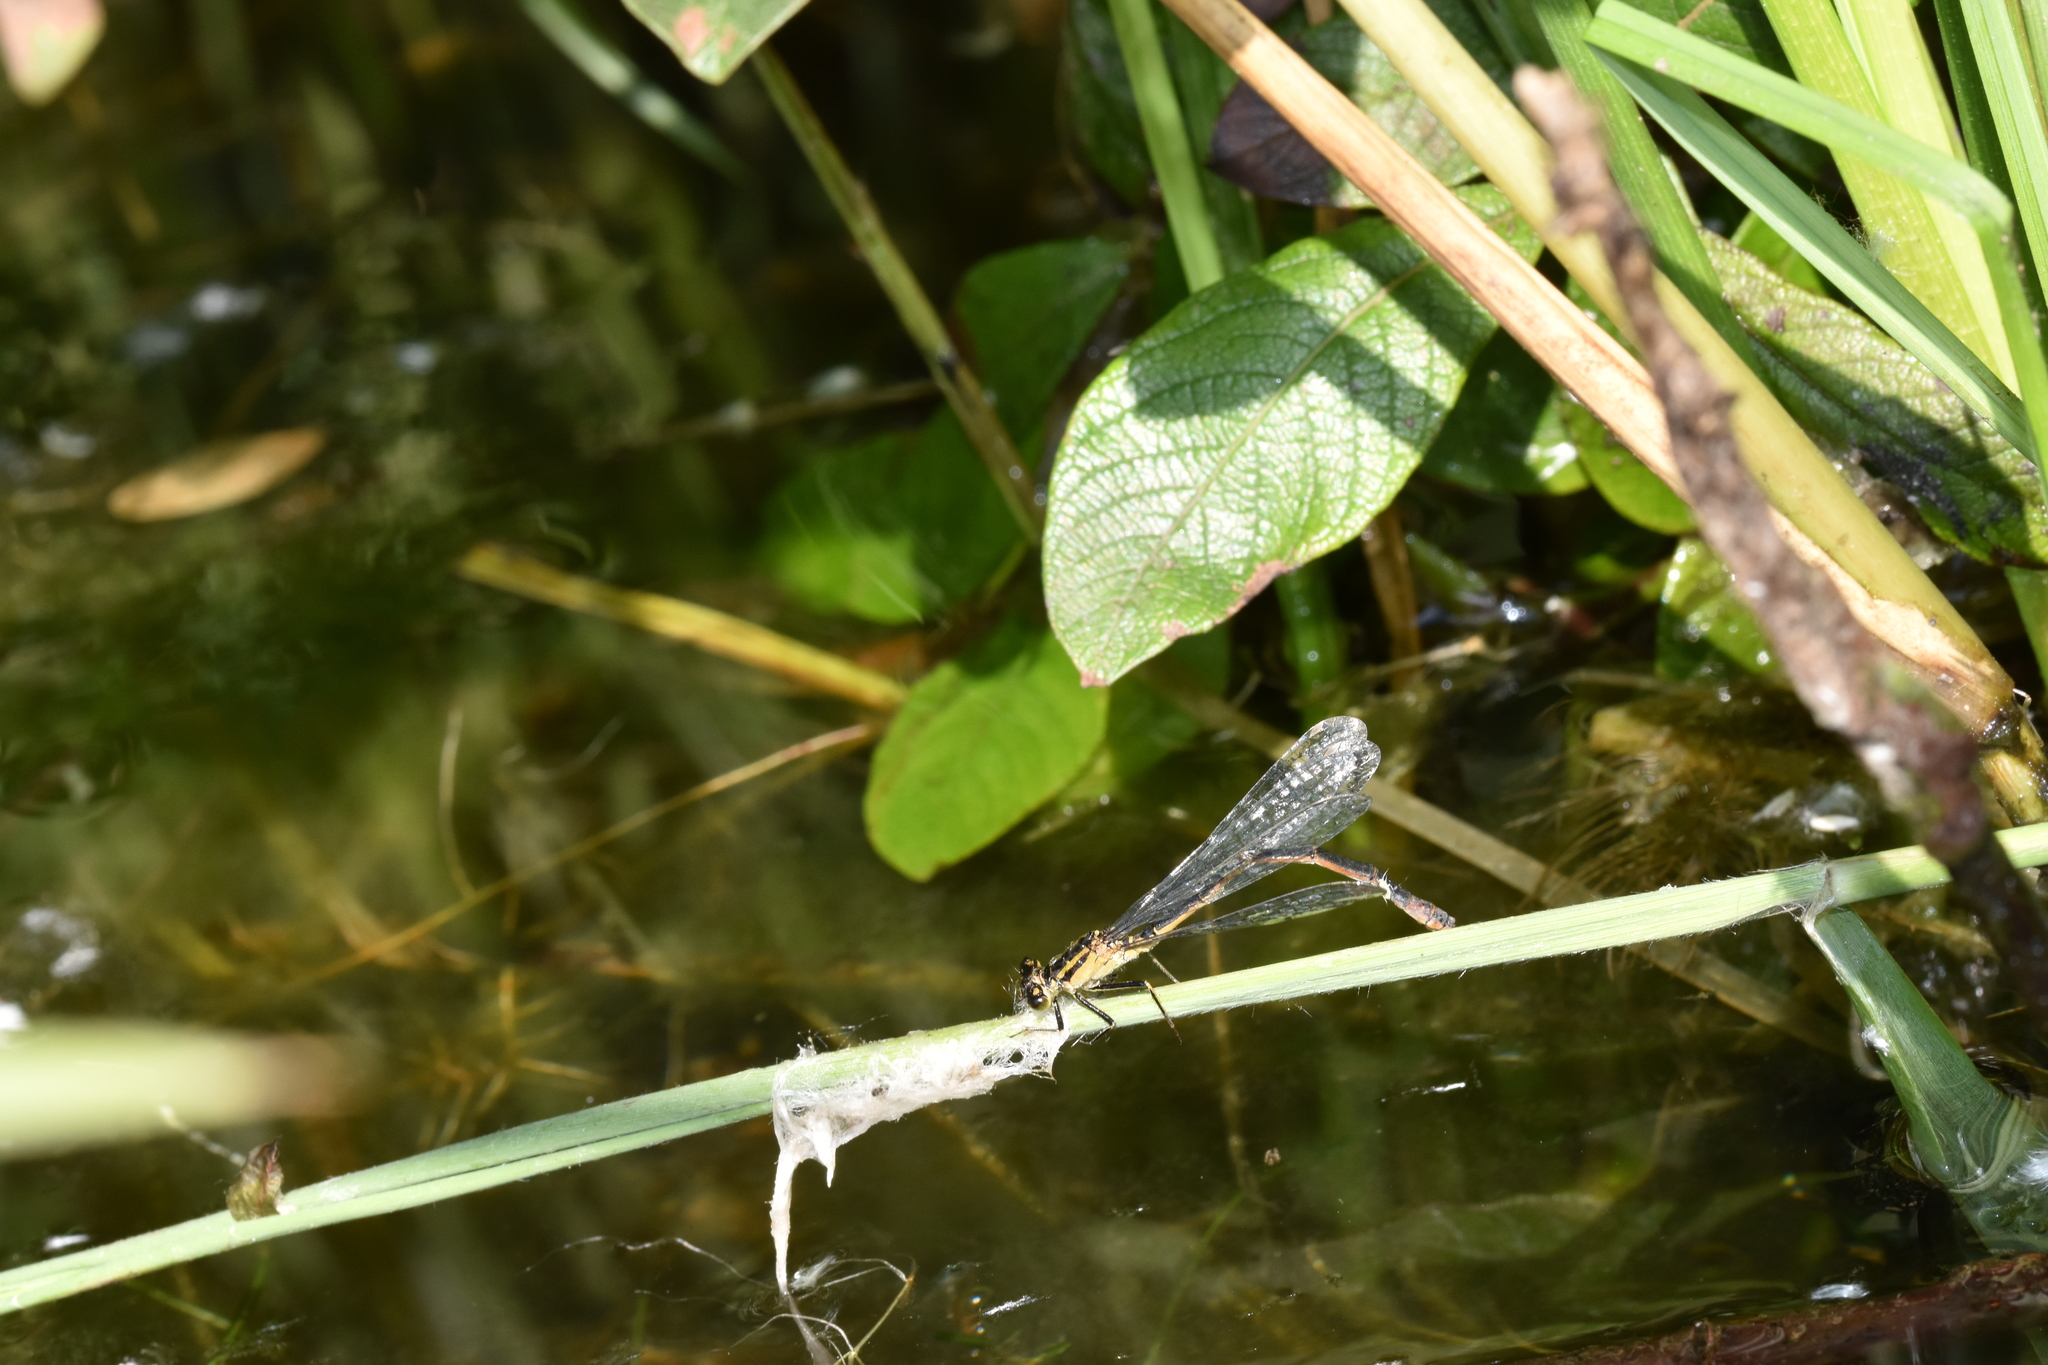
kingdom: Animalia
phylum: Arthropoda
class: Insecta
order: Odonata
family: Coenagrionidae
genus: Ischnura
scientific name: Ischnura elegans
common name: Blue-tailed damselfly
